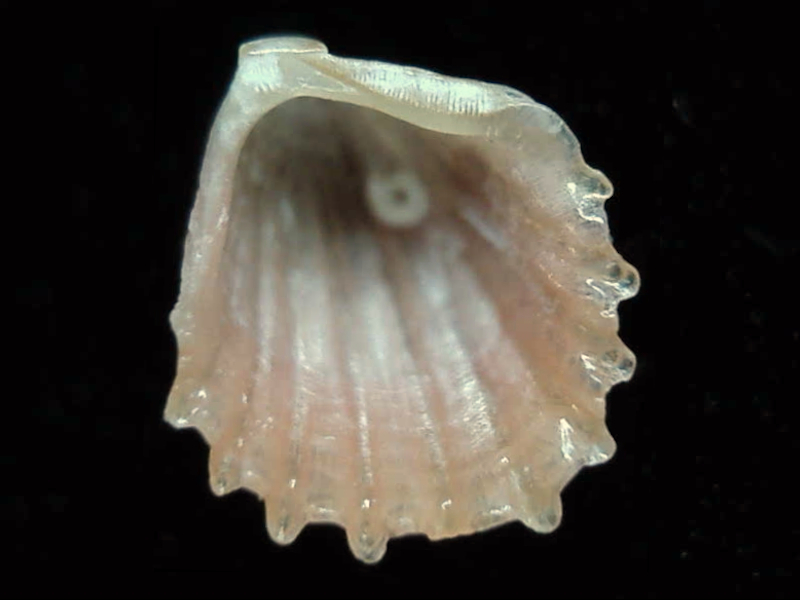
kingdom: Animalia
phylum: Mollusca
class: Bivalvia
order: Arcida
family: Philobryidae
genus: Cosa
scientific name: Cosa serratocostata
